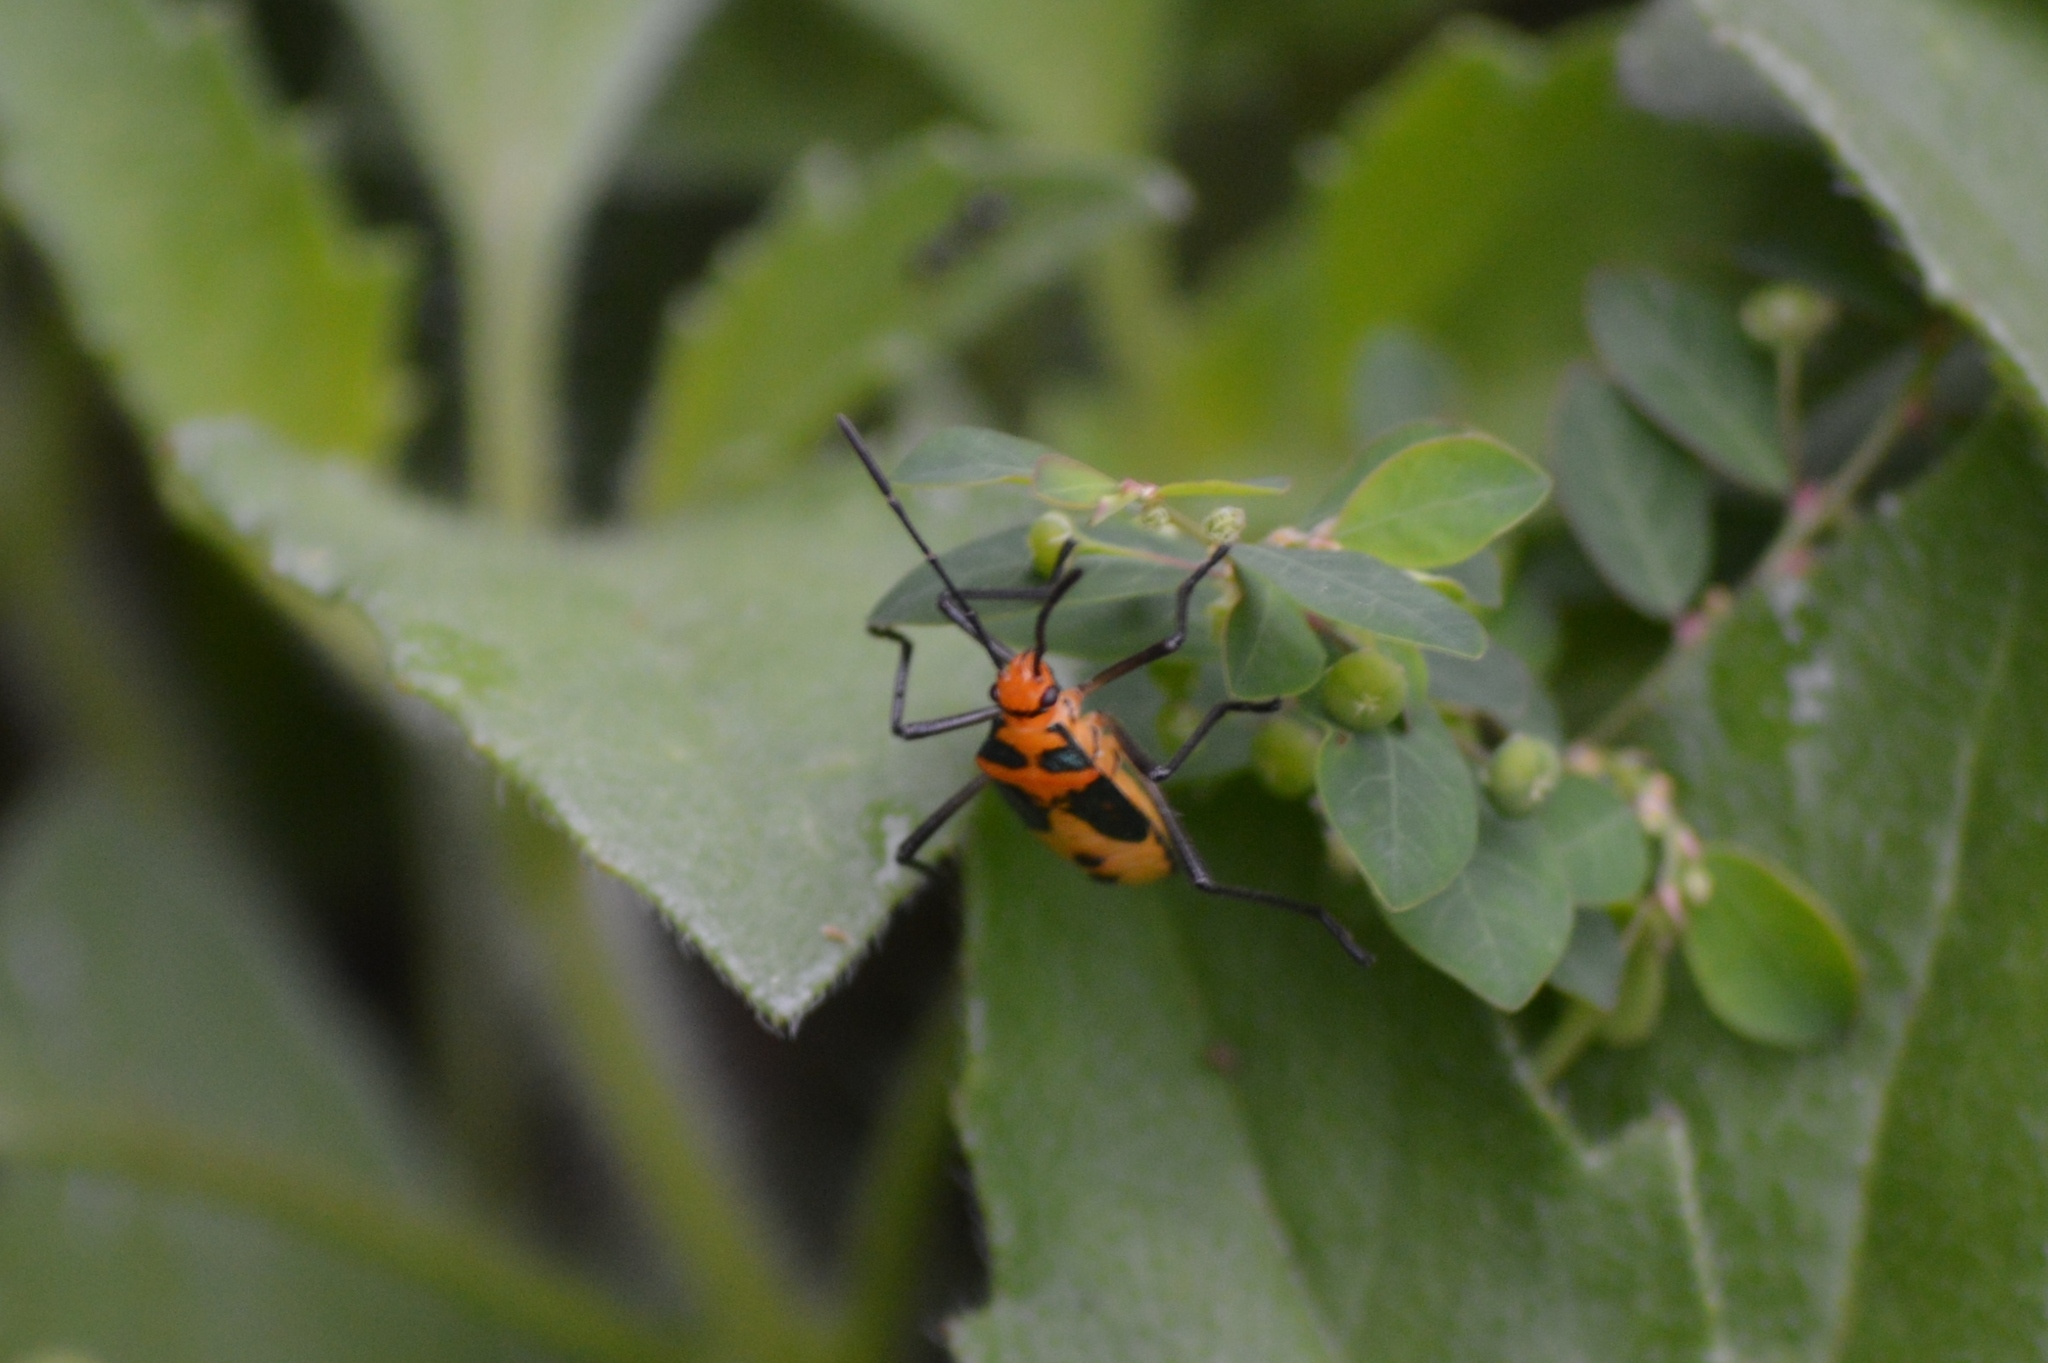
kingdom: Animalia
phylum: Arthropoda
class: Insecta
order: Hemiptera
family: Coreidae
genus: Sphictyrtus
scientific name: Sphictyrtus chrysis
